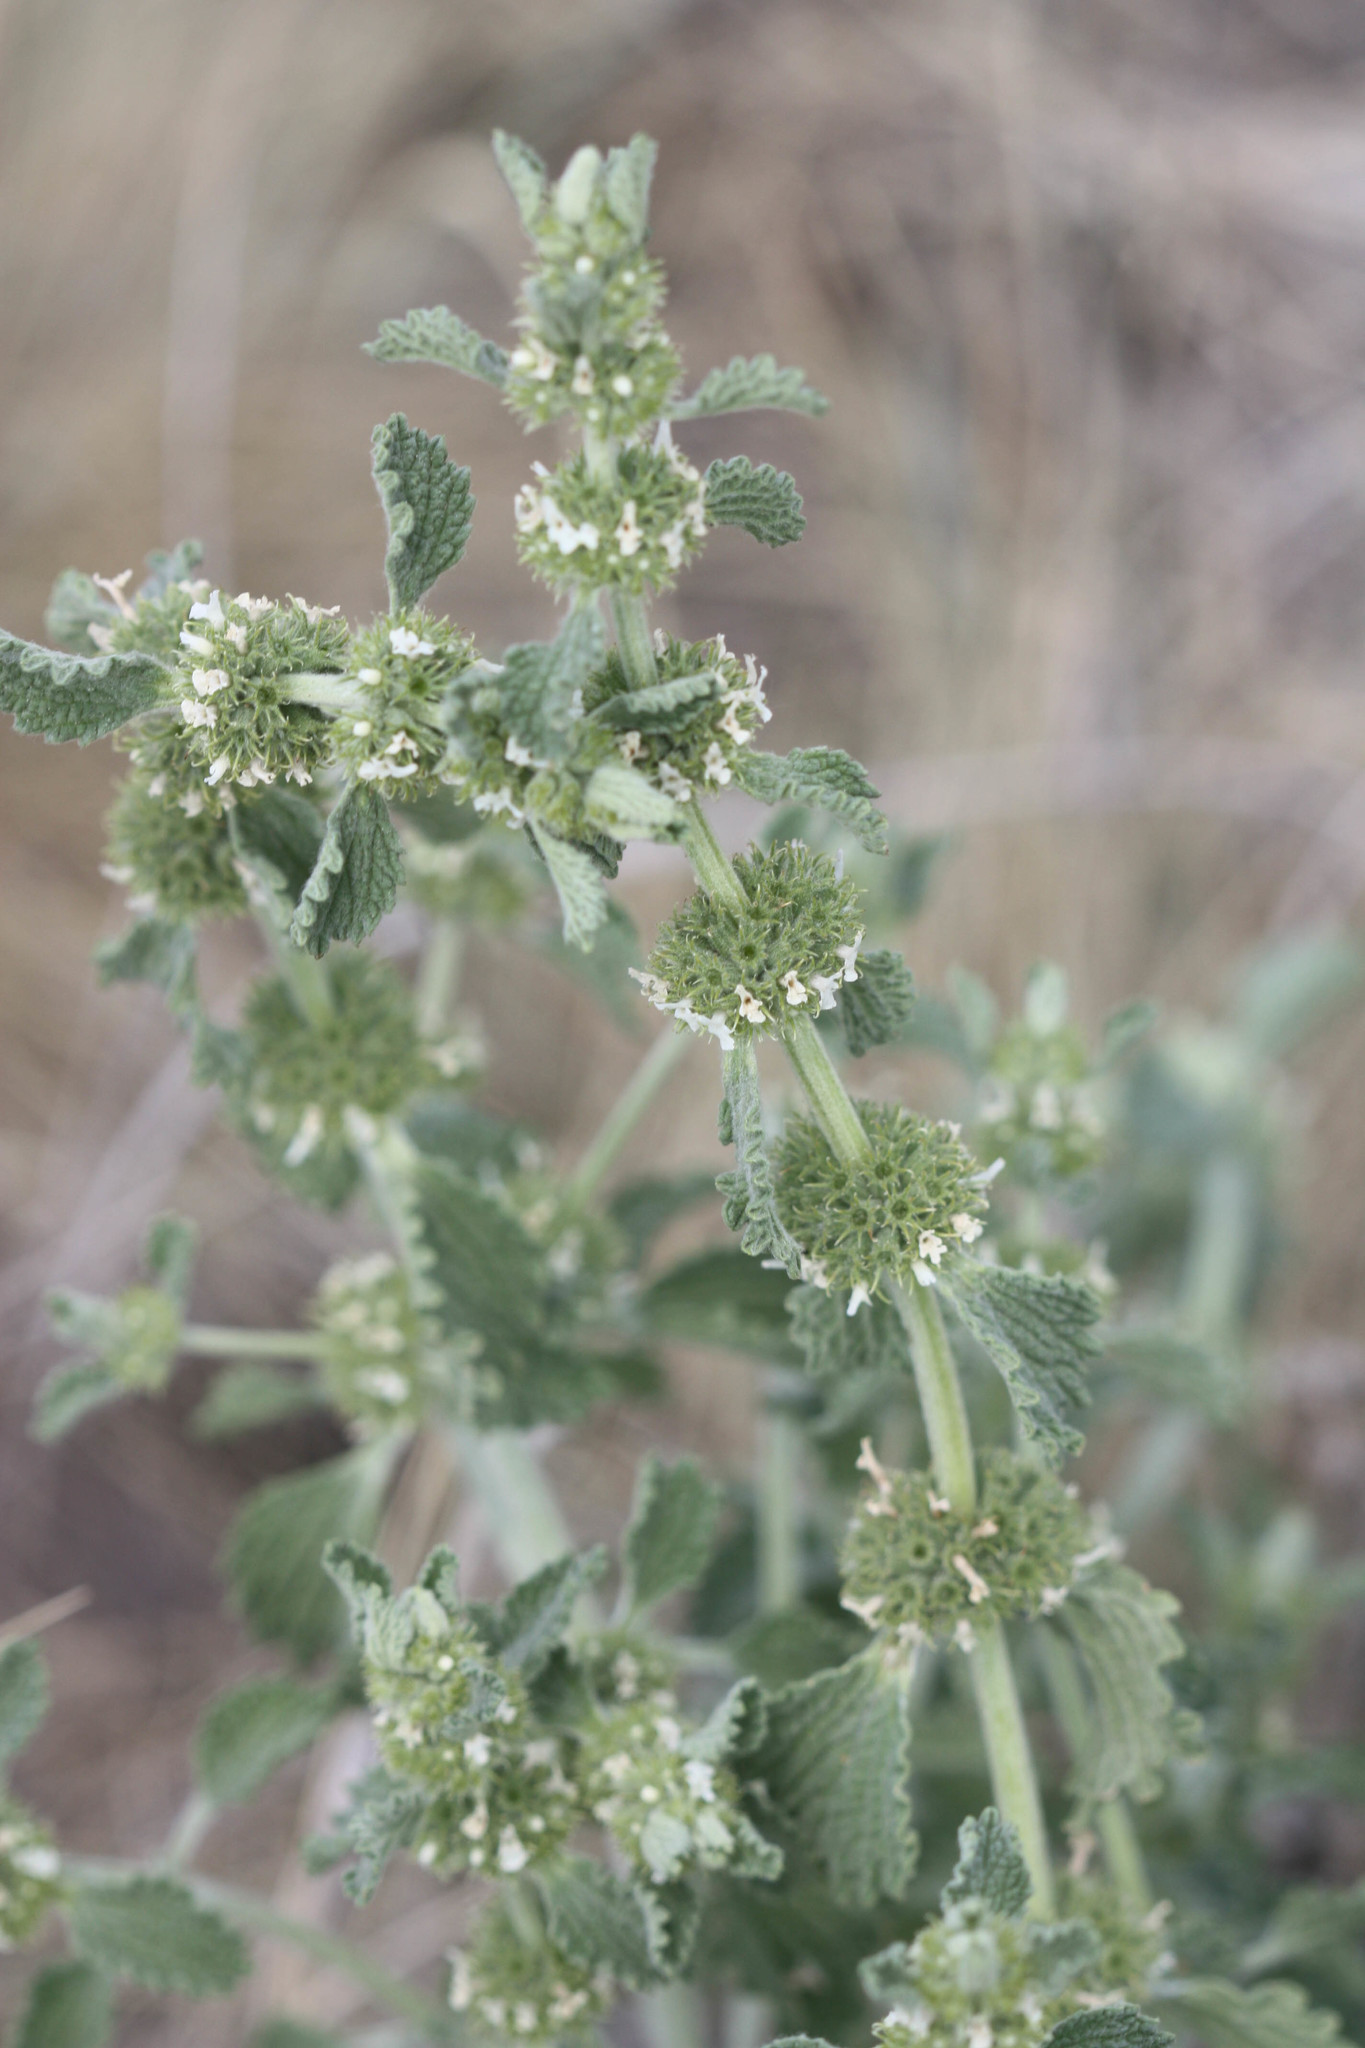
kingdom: Plantae
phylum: Tracheophyta
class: Magnoliopsida
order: Lamiales
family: Lamiaceae
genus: Marrubium
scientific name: Marrubium vulgare
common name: Horehound
